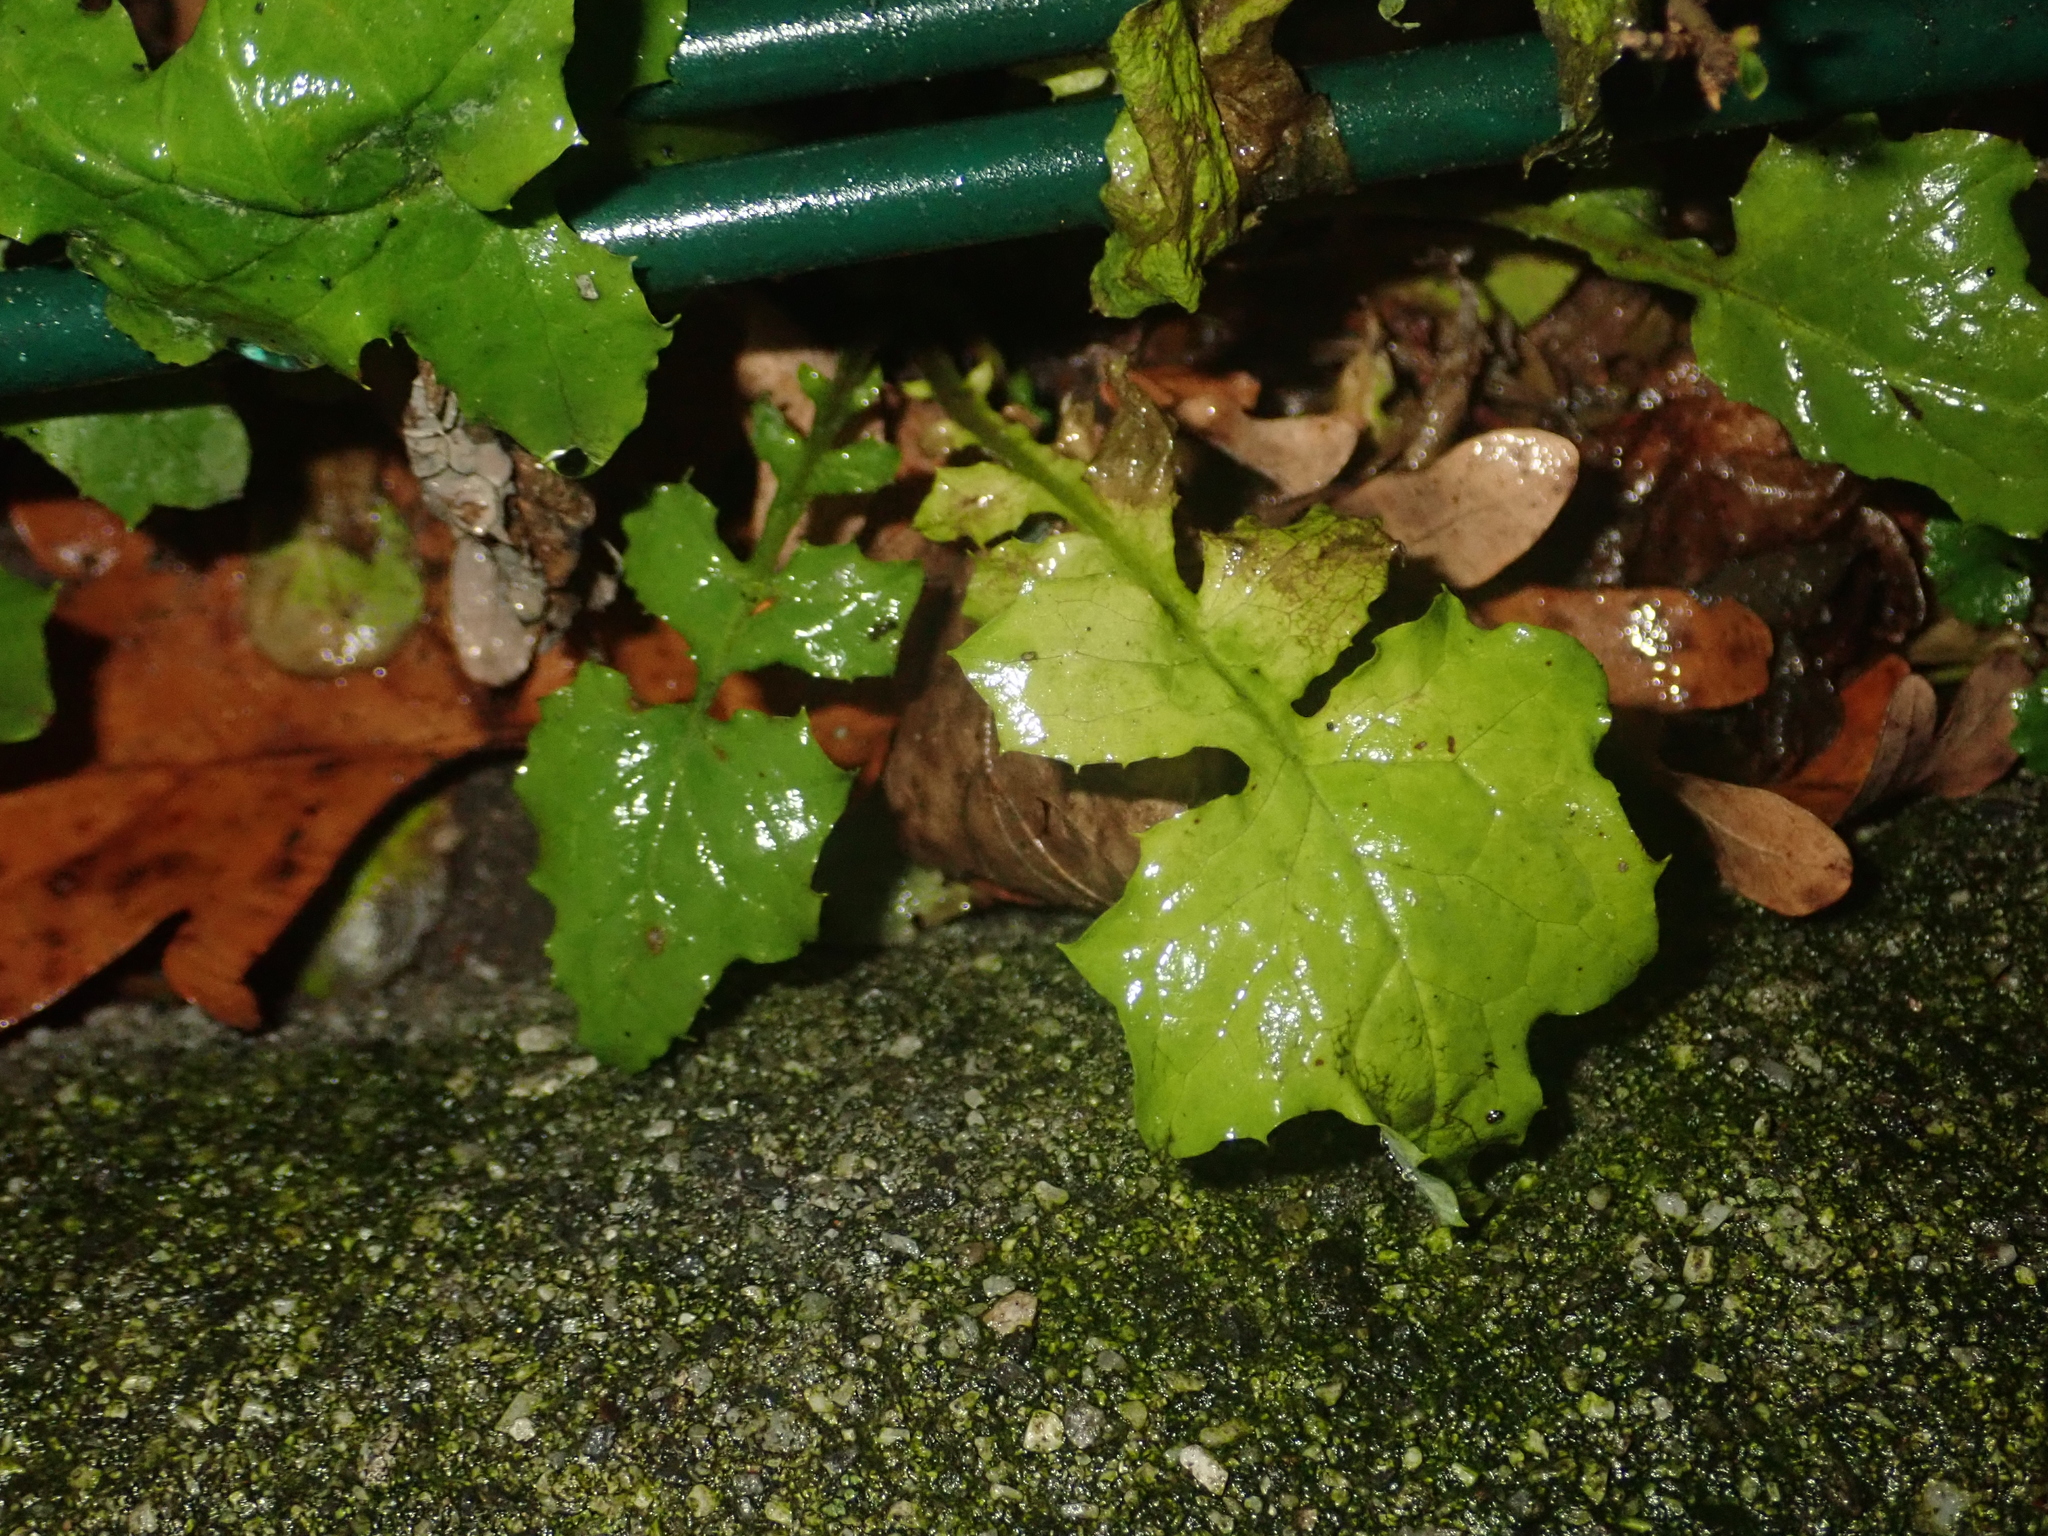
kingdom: Plantae
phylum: Tracheophyta
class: Magnoliopsida
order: Asterales
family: Asteraceae
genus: Mycelis
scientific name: Mycelis muralis
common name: Wall lettuce
